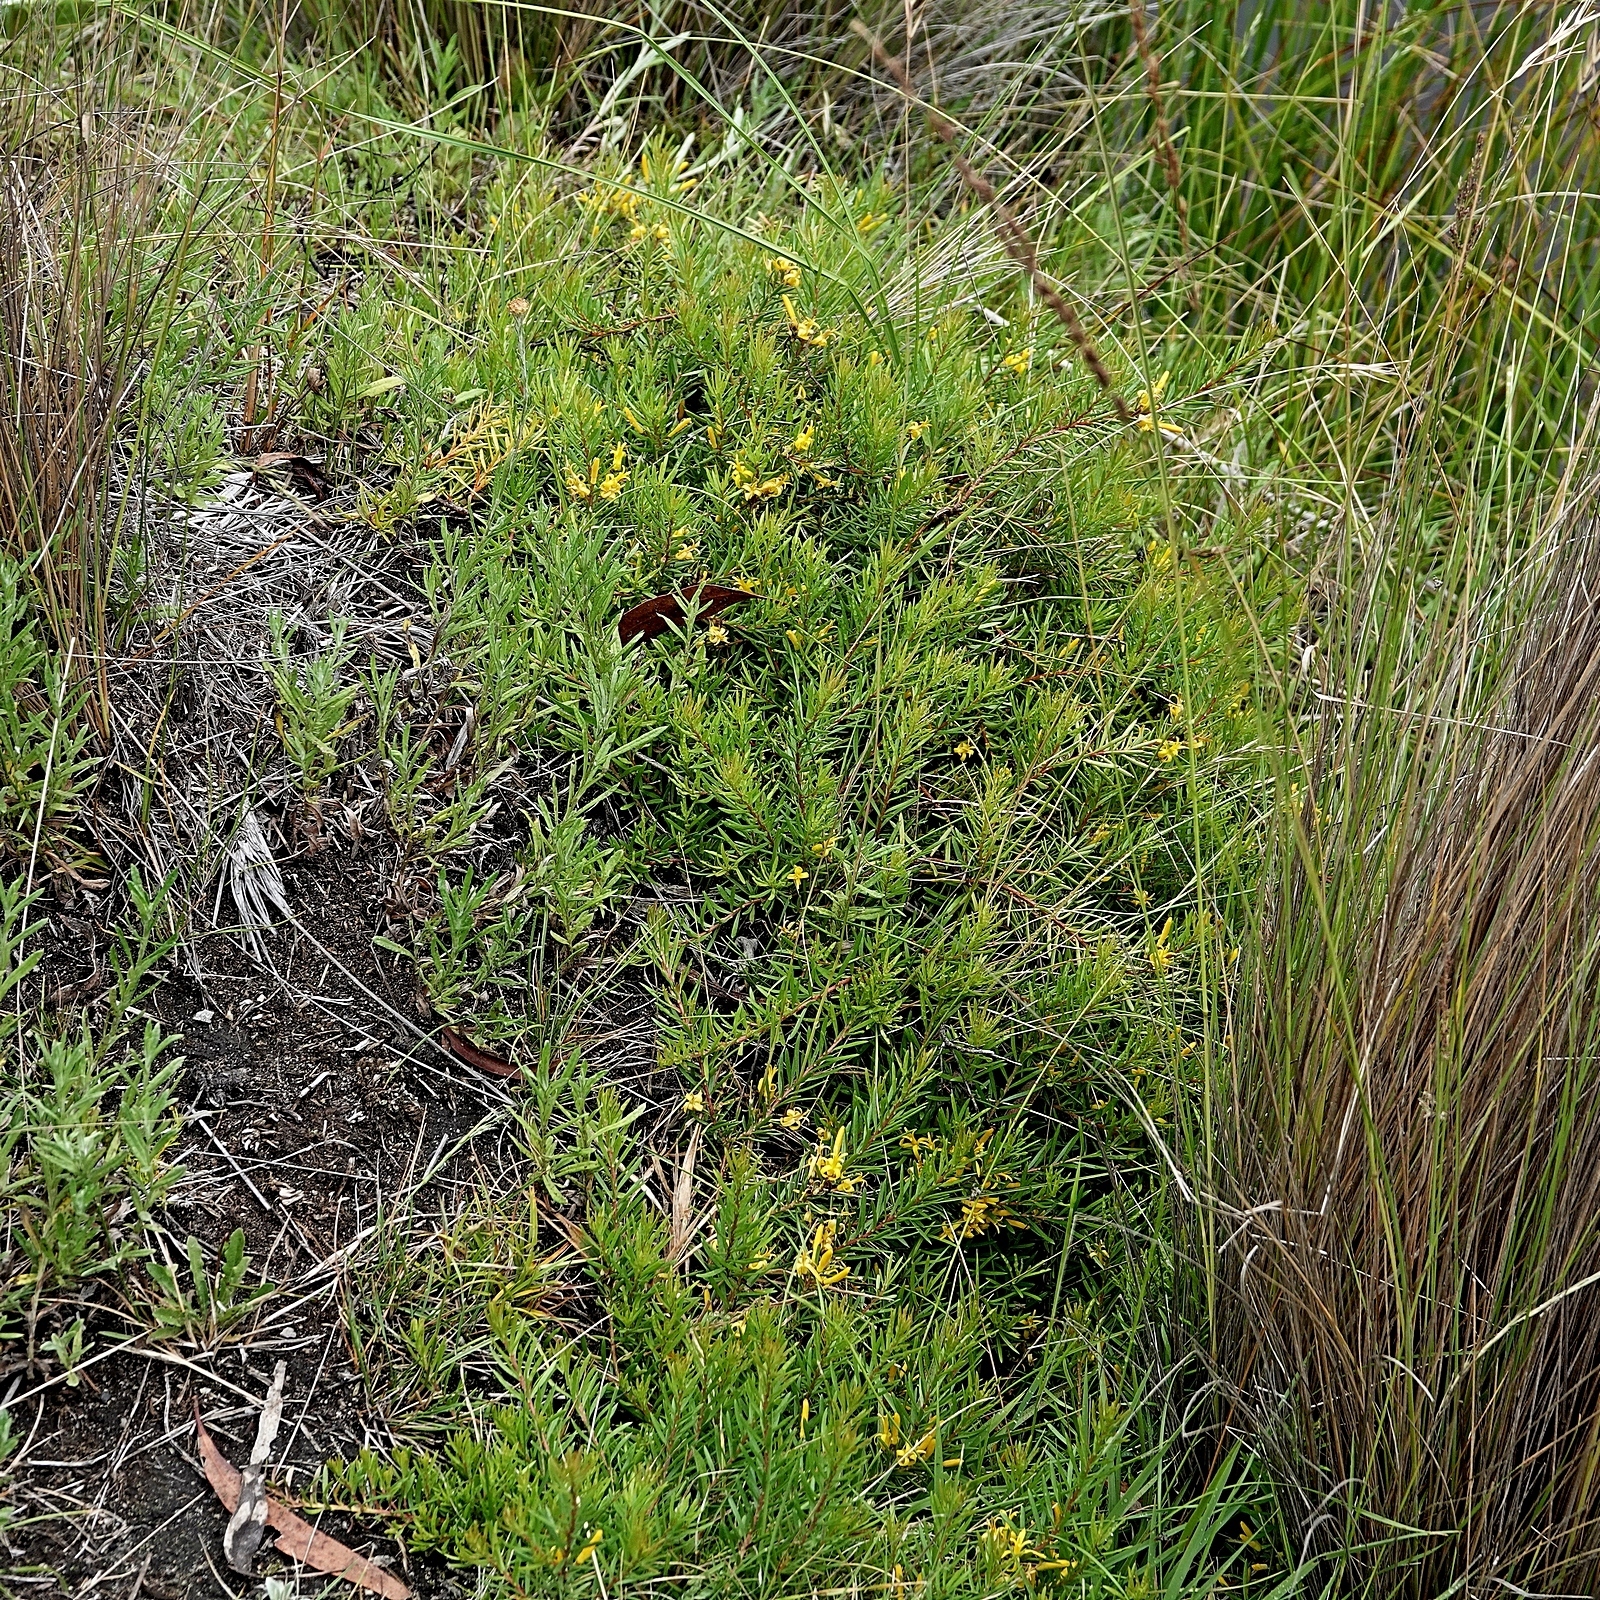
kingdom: Plantae
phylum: Tracheophyta
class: Magnoliopsida
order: Proteales
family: Proteaceae
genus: Persoonia
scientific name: Persoonia chamaepeuce
